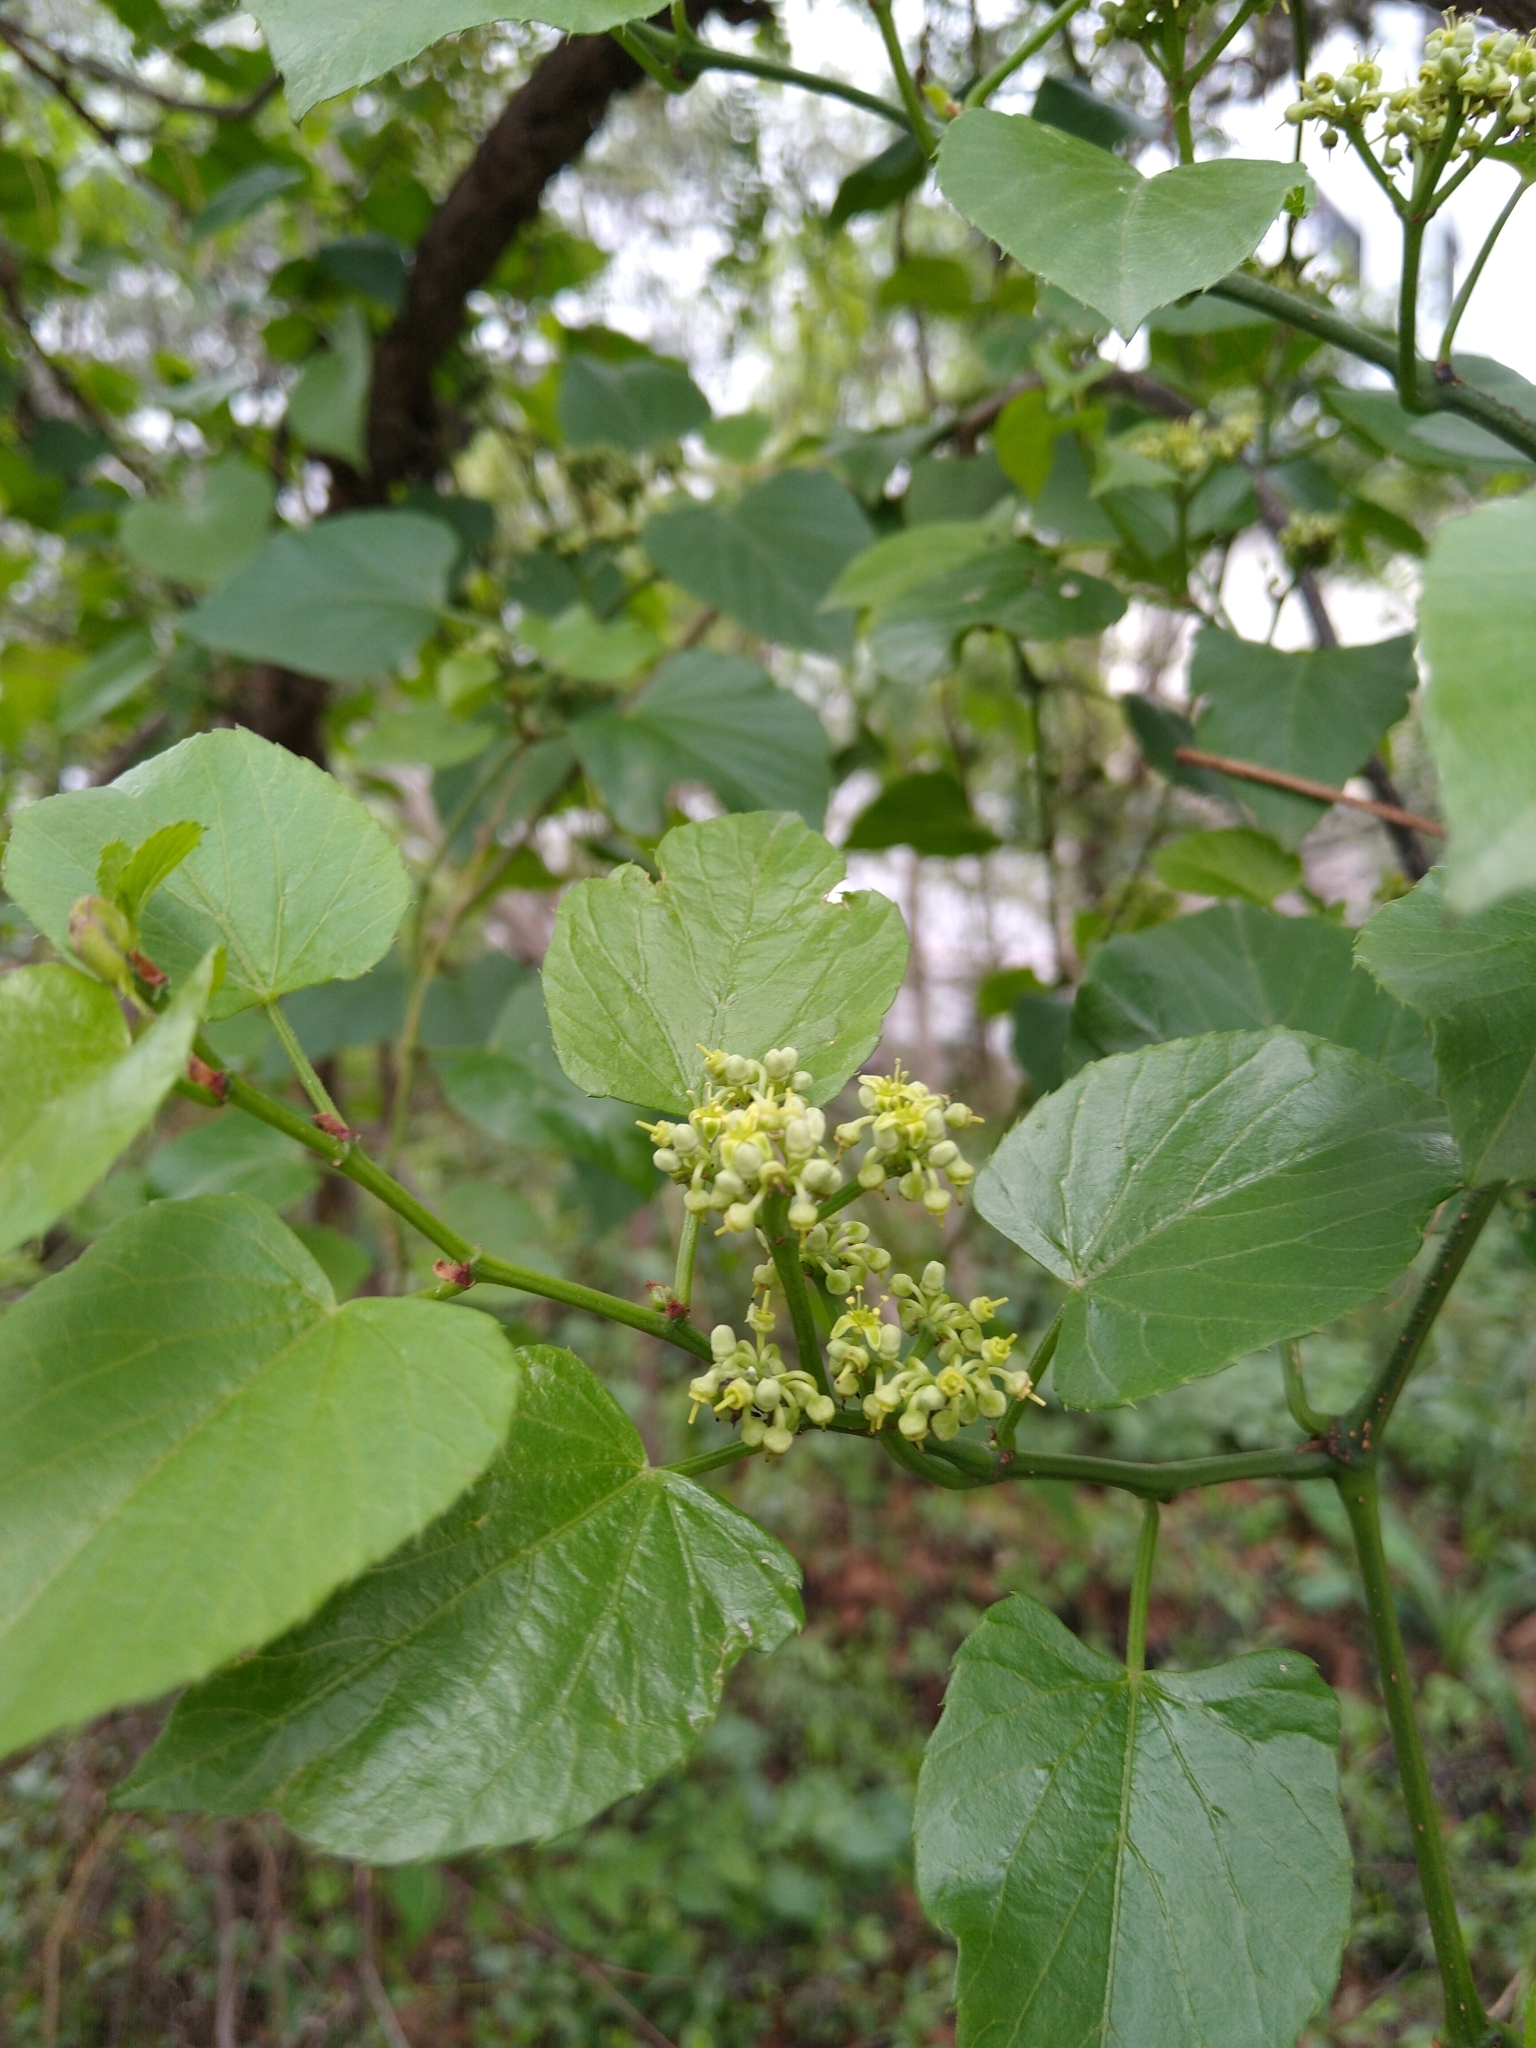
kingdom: Plantae
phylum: Tracheophyta
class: Magnoliopsida
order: Vitales
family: Vitaceae
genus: Cissus
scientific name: Cissus verticillata
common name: Princess vine
